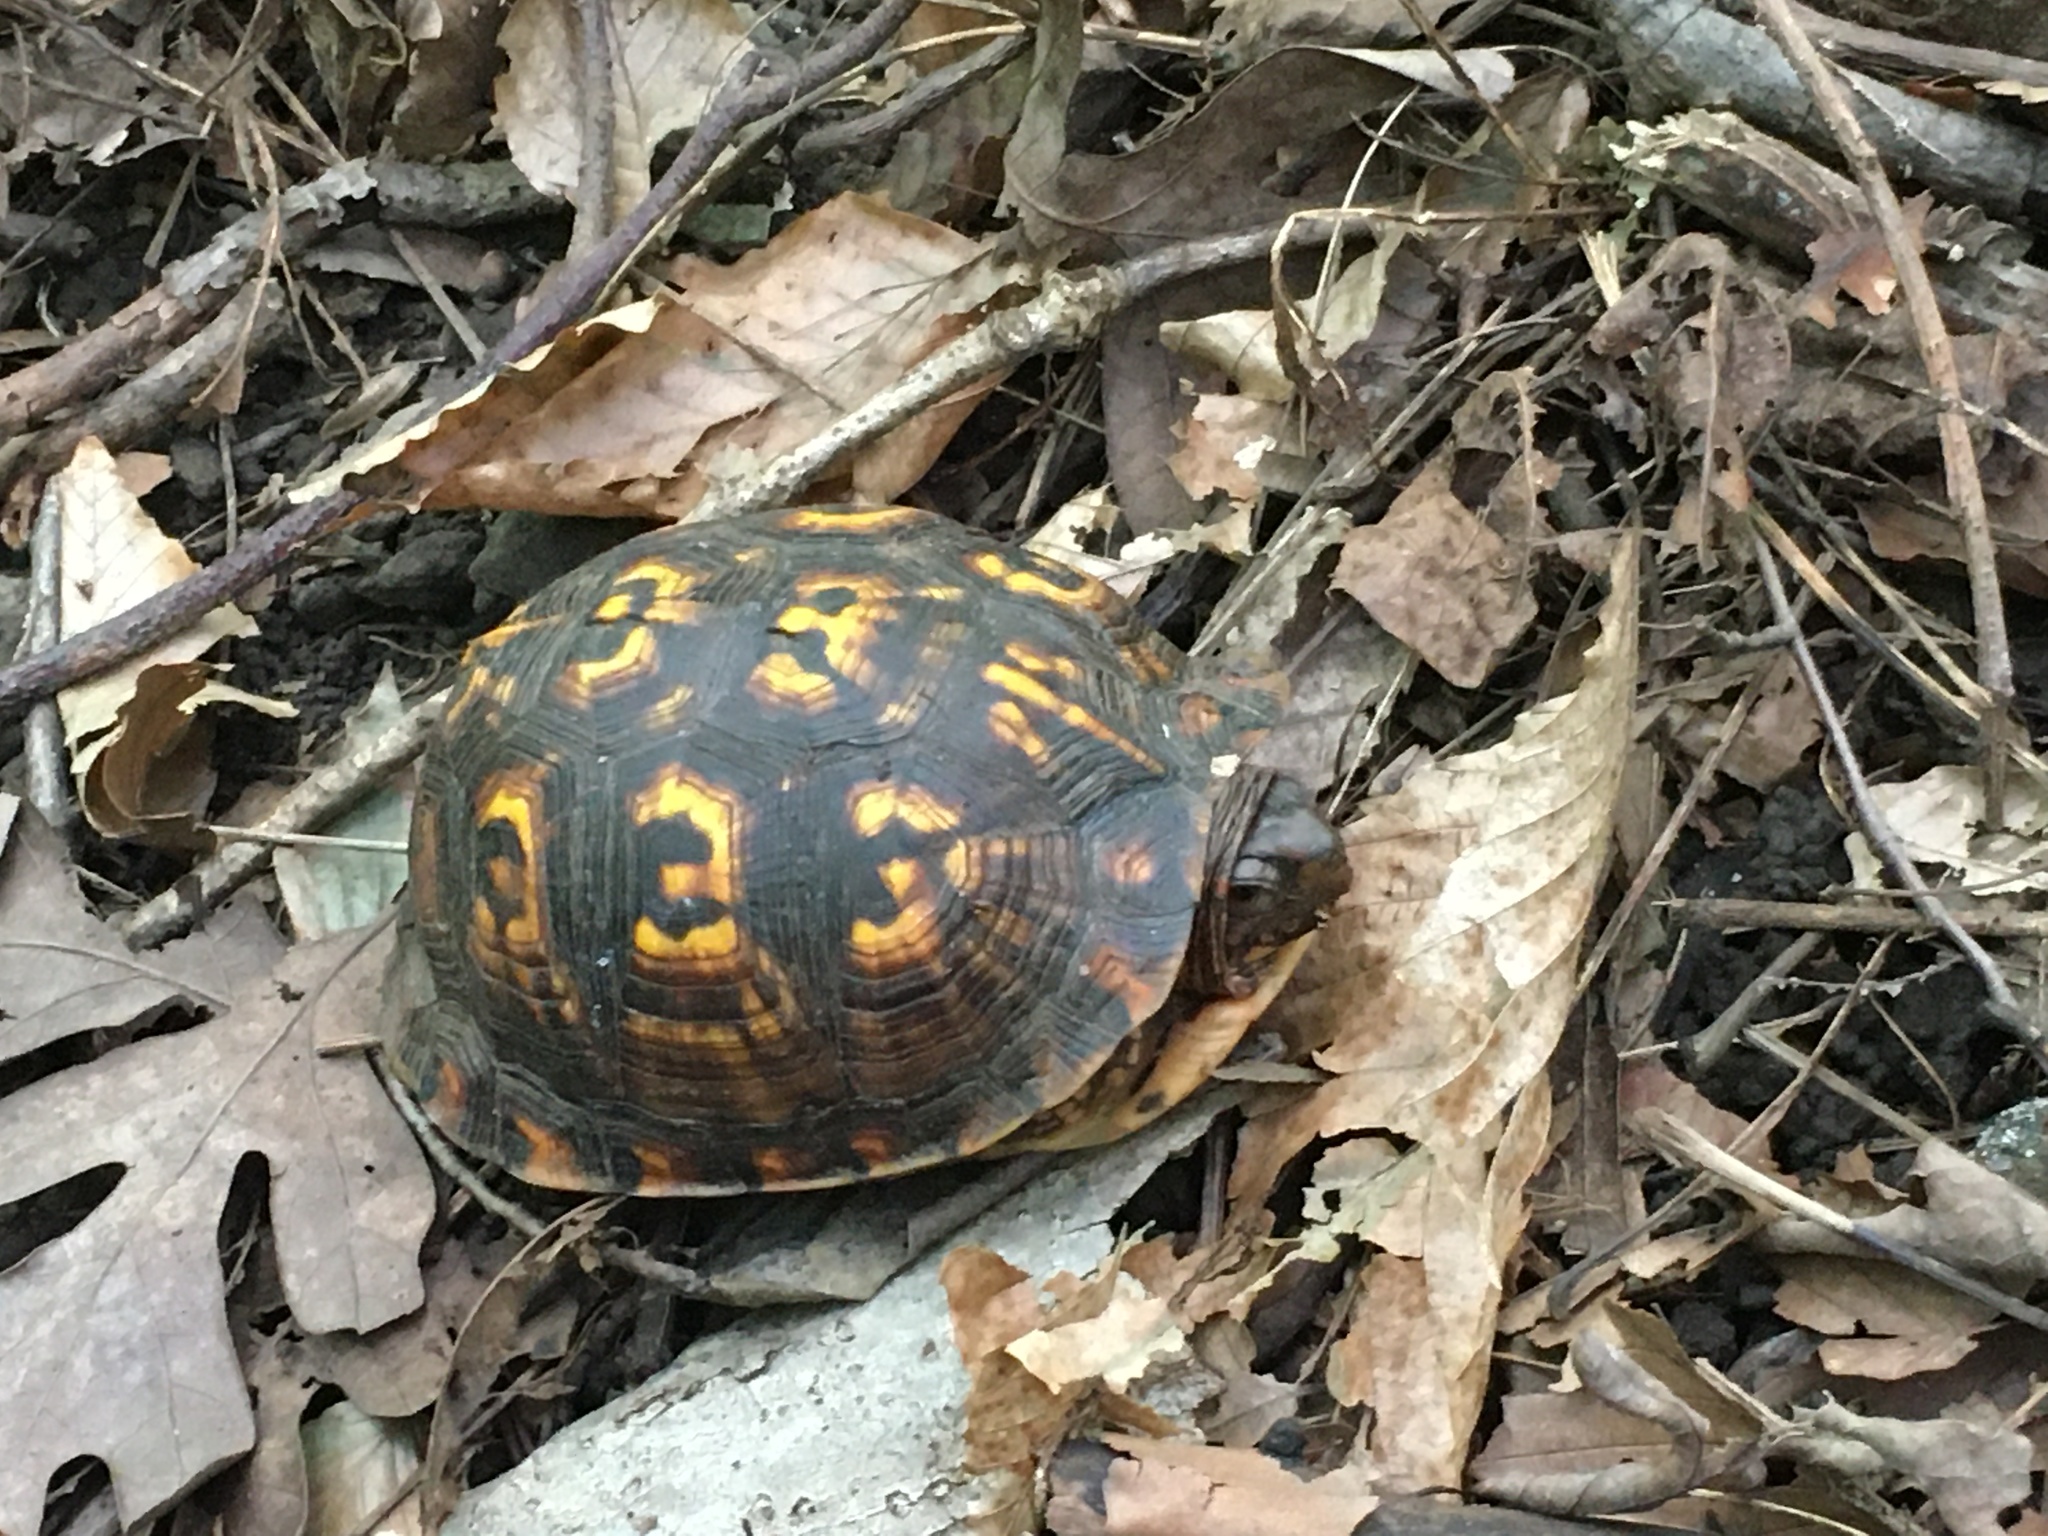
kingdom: Animalia
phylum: Chordata
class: Testudines
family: Emydidae
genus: Terrapene
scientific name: Terrapene carolina
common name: Common box turtle
